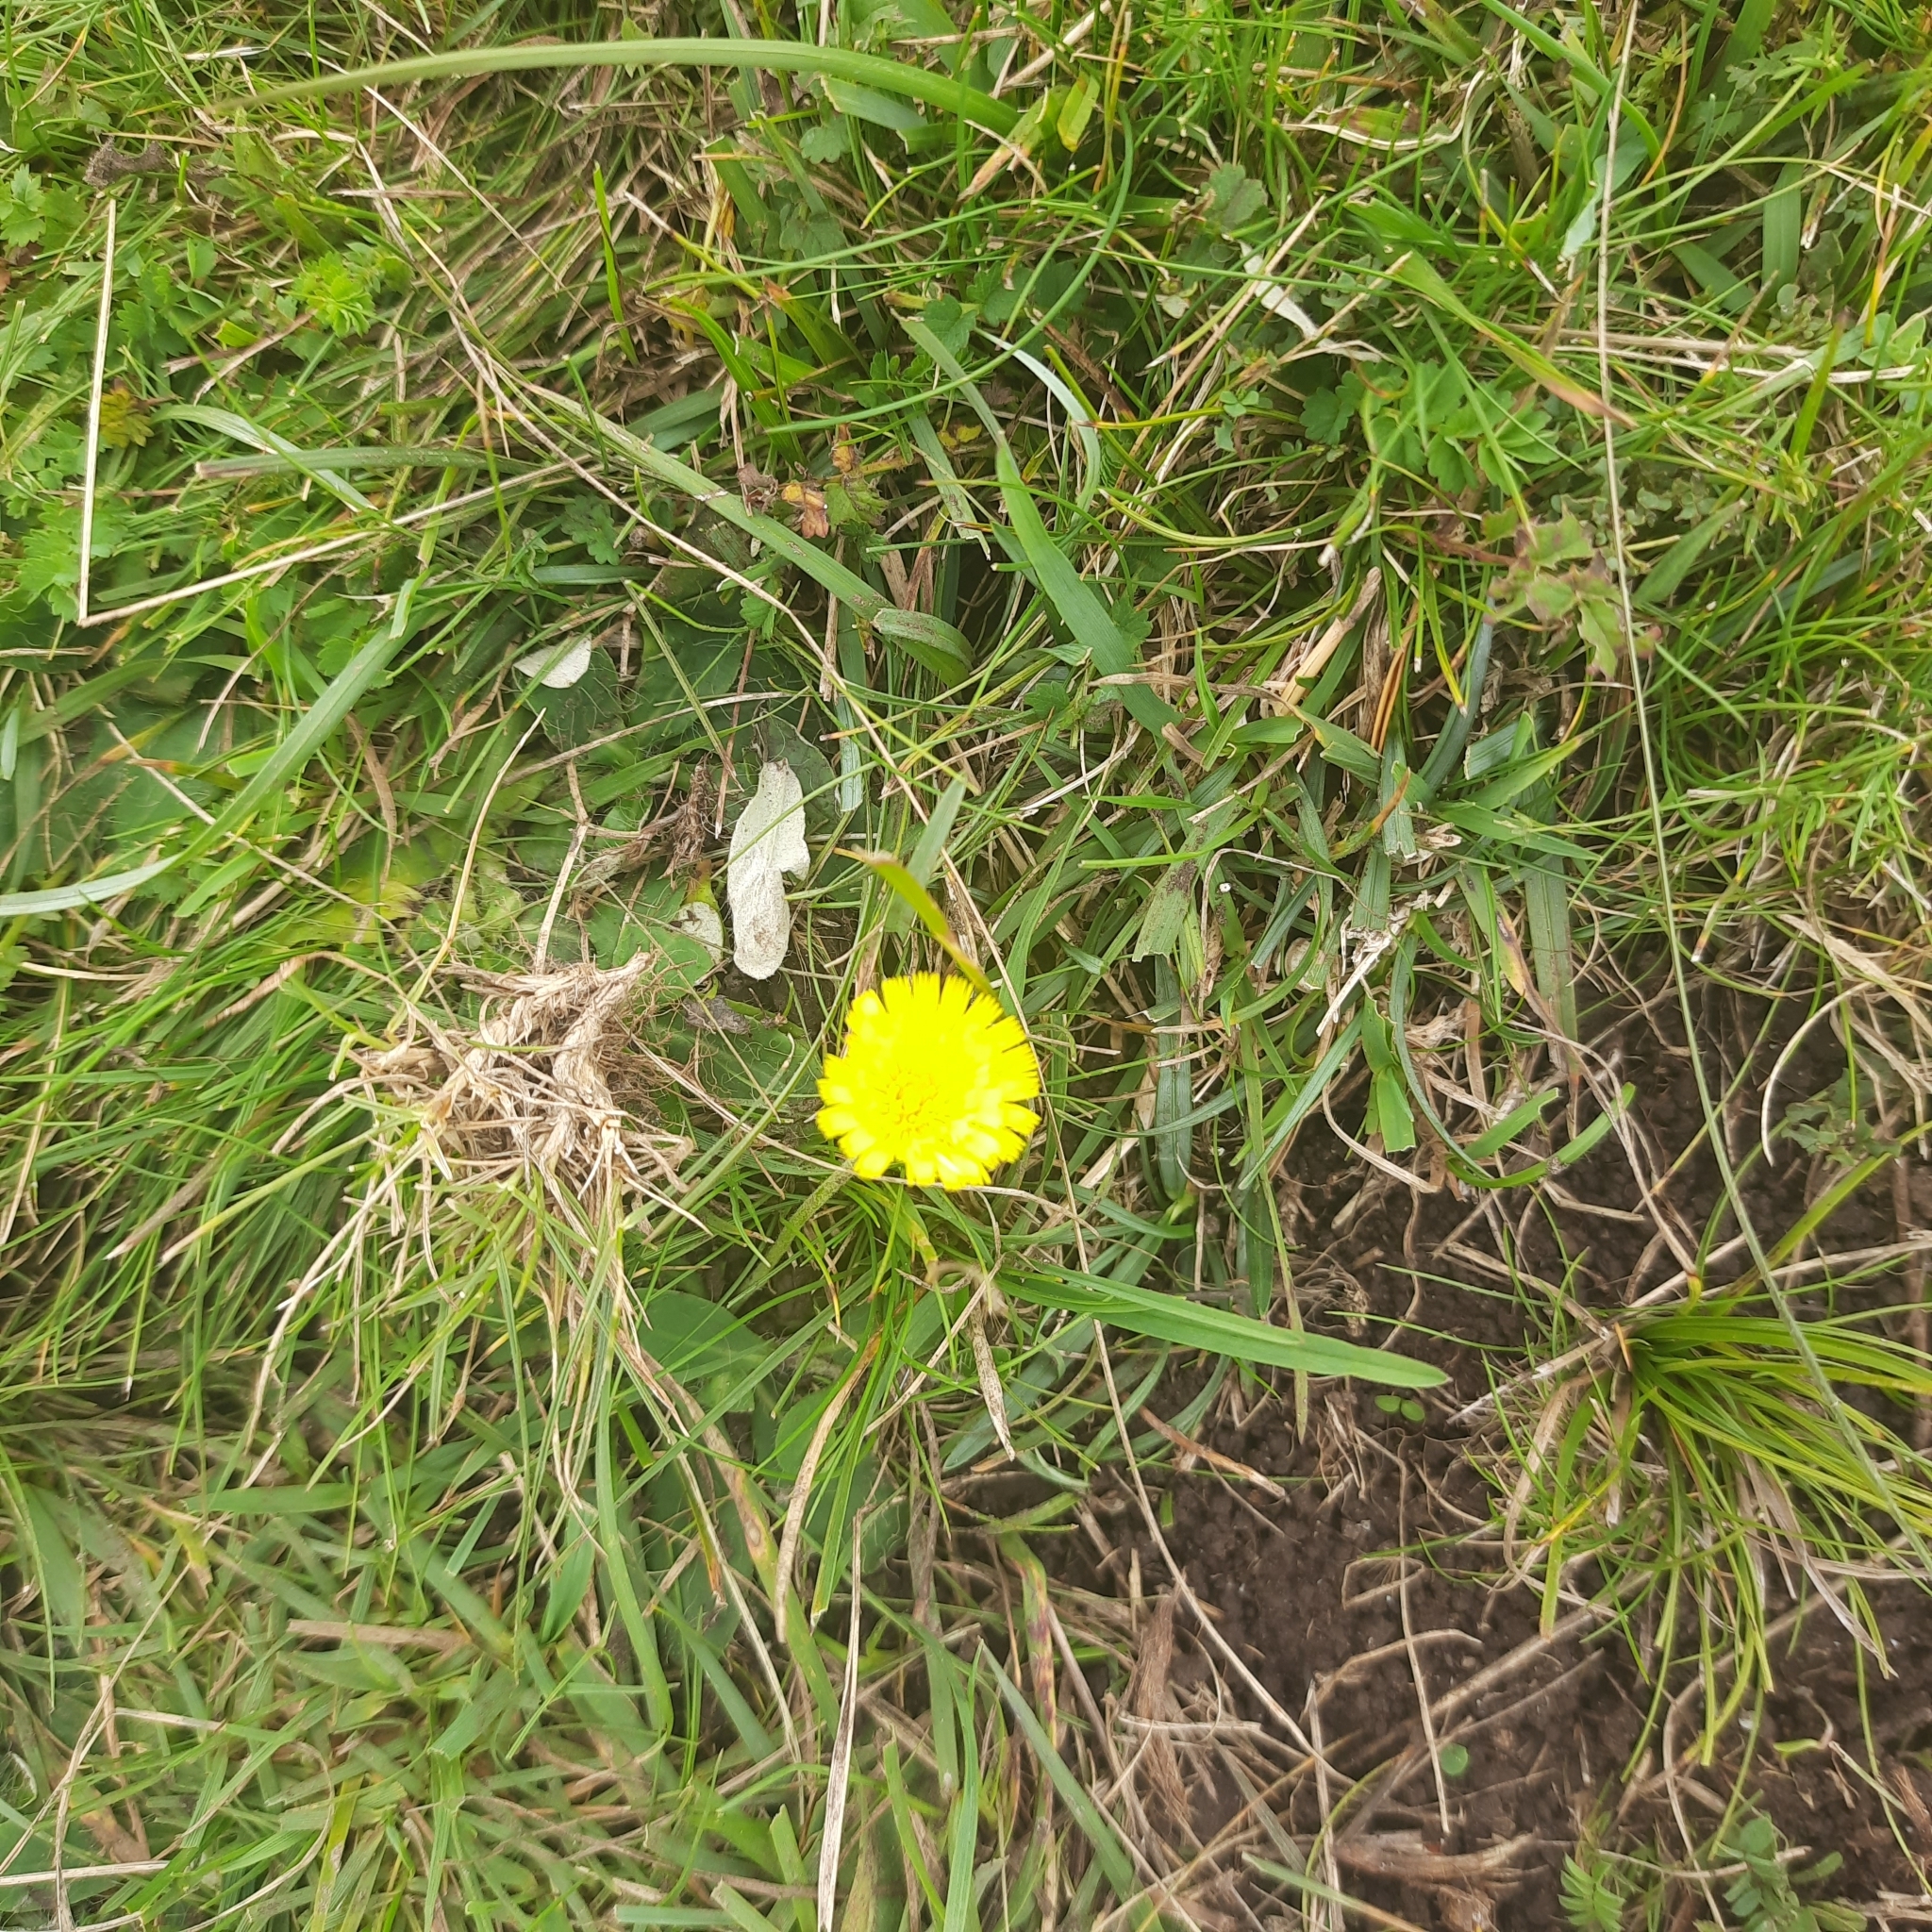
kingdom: Plantae
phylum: Tracheophyta
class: Magnoliopsida
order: Asterales
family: Asteraceae
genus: Pilosella
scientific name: Pilosella officinarum
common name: Mouse-ear hawkweed
